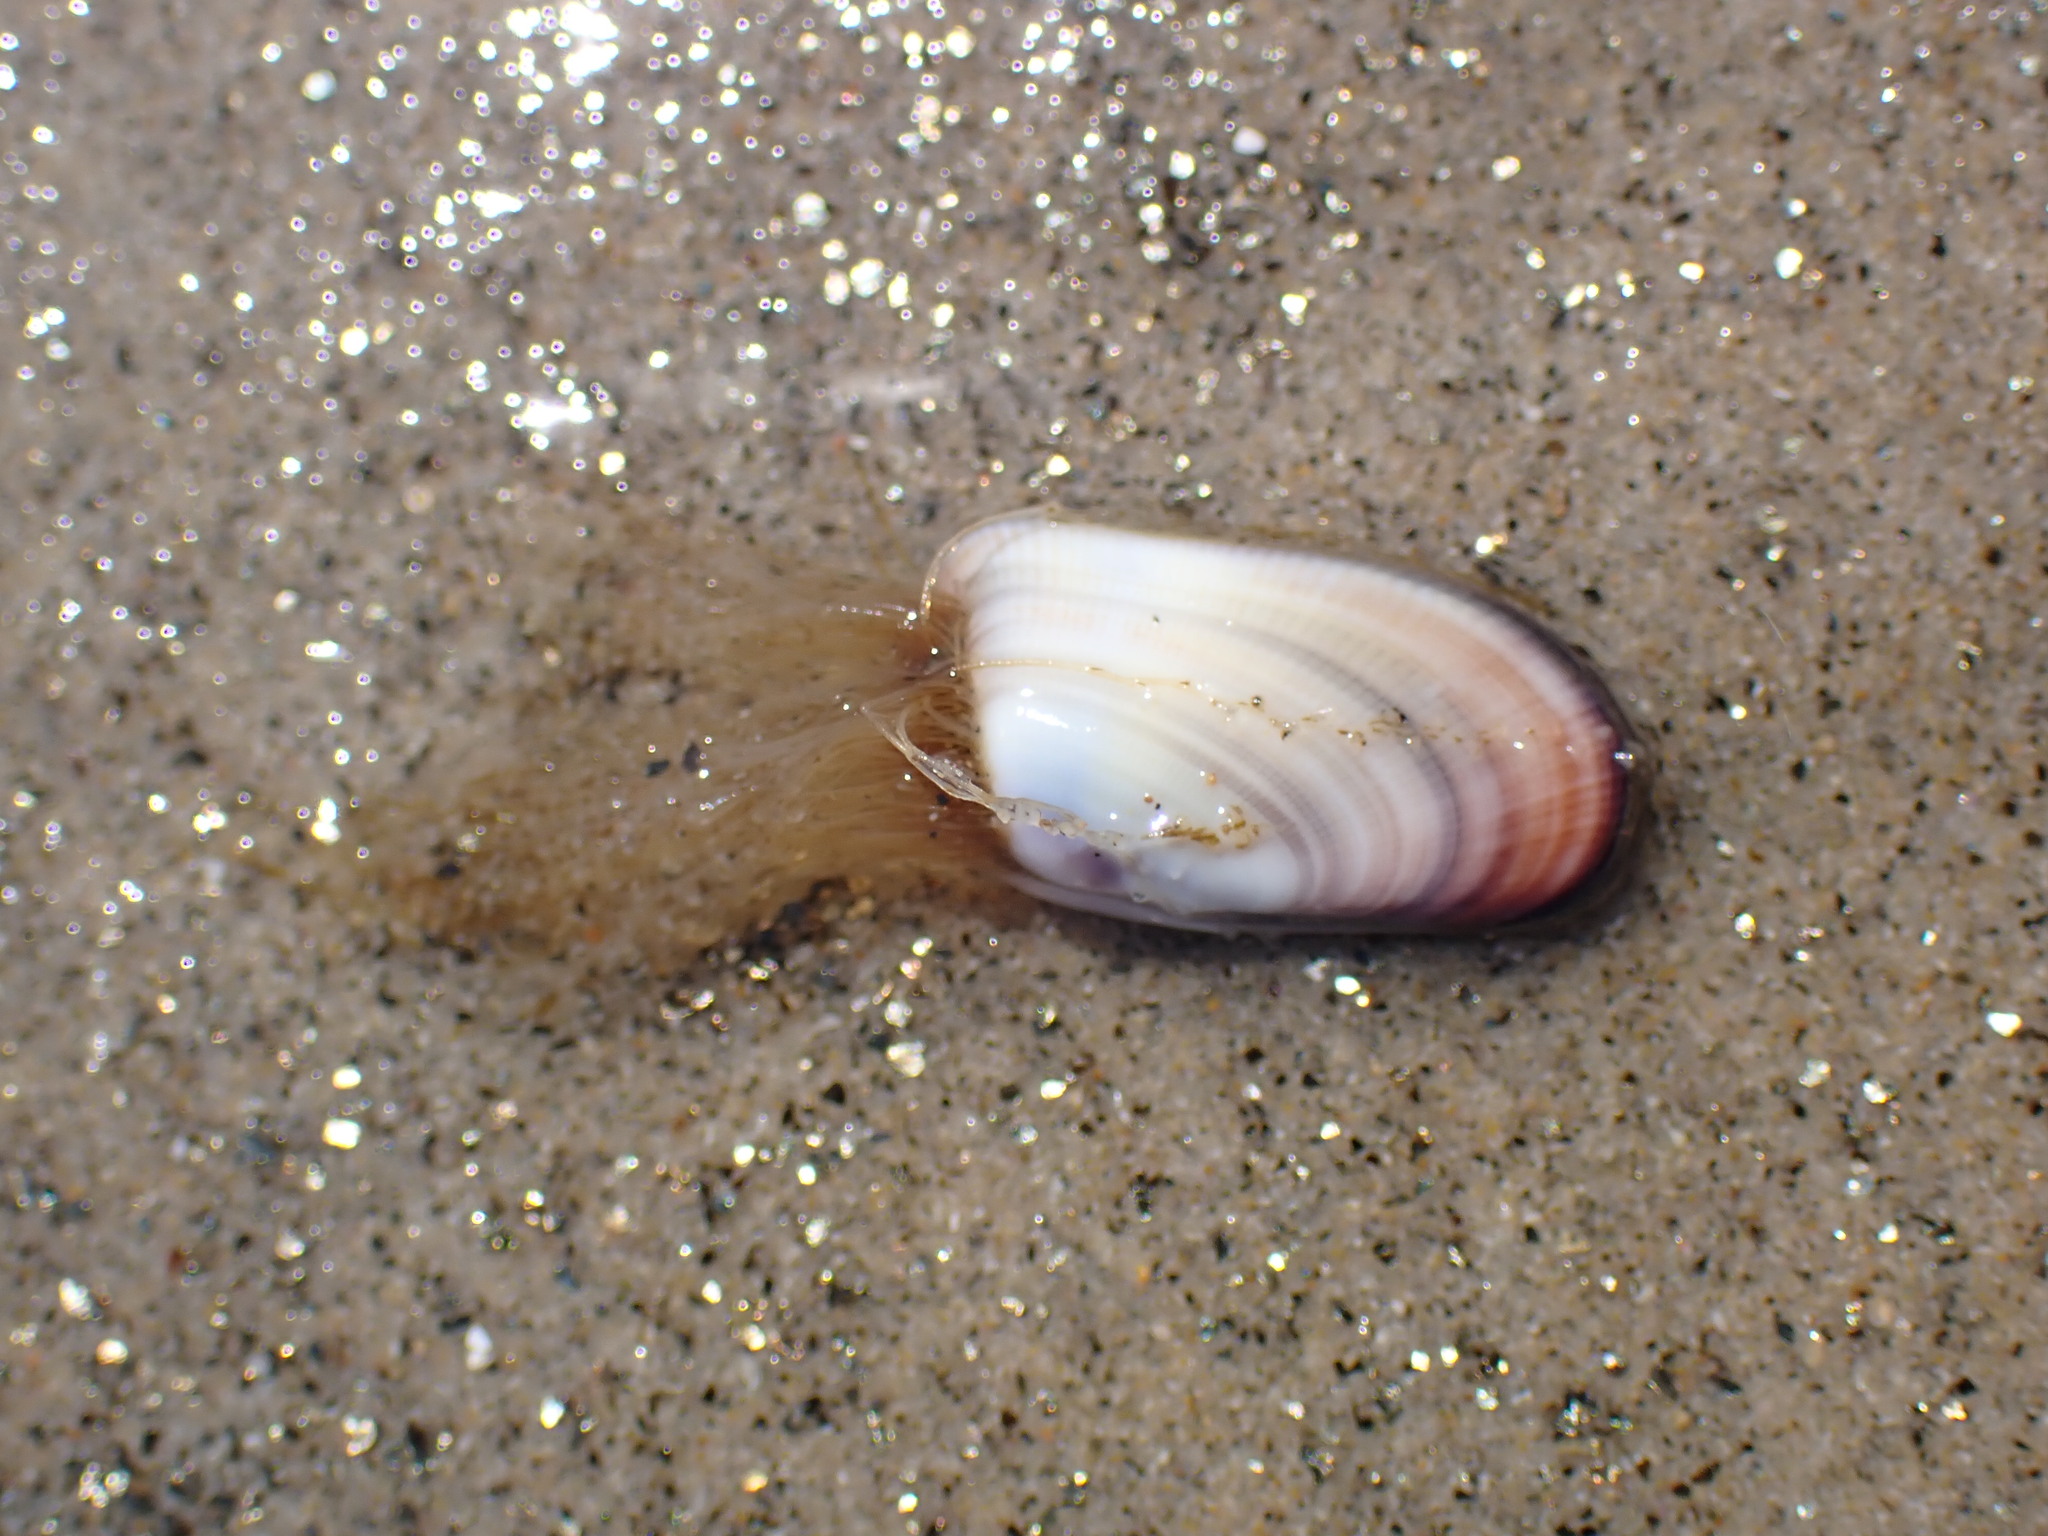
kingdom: Animalia
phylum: Cnidaria
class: Hydrozoa
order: Leptothecata
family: Lovenellidae
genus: Eucheilota
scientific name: Eucheilota bakeri
